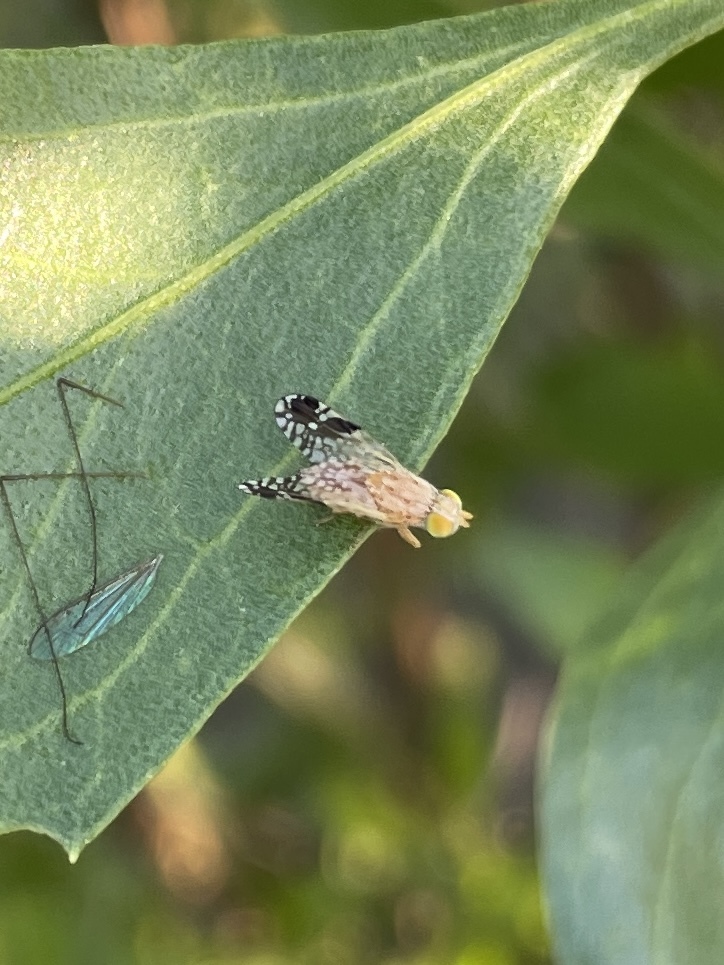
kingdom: Animalia
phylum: Arthropoda
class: Insecta
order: Diptera
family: Tephritidae
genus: Tephritis
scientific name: Tephritis subpura
